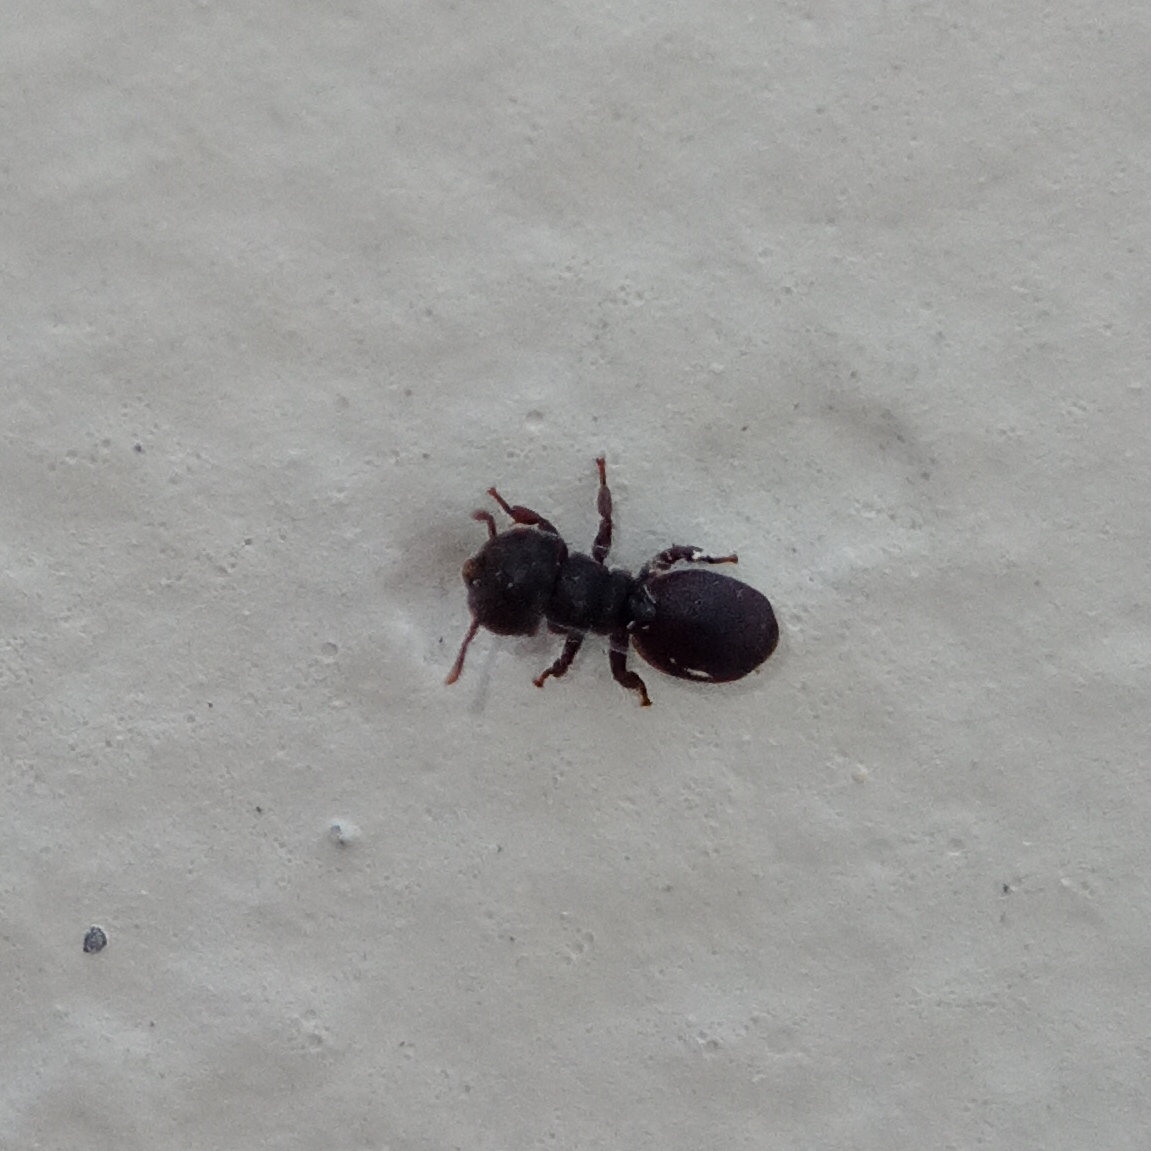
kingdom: Animalia
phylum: Arthropoda
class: Insecta
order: Hymenoptera
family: Formicidae
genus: Cephalotes
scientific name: Cephalotes
